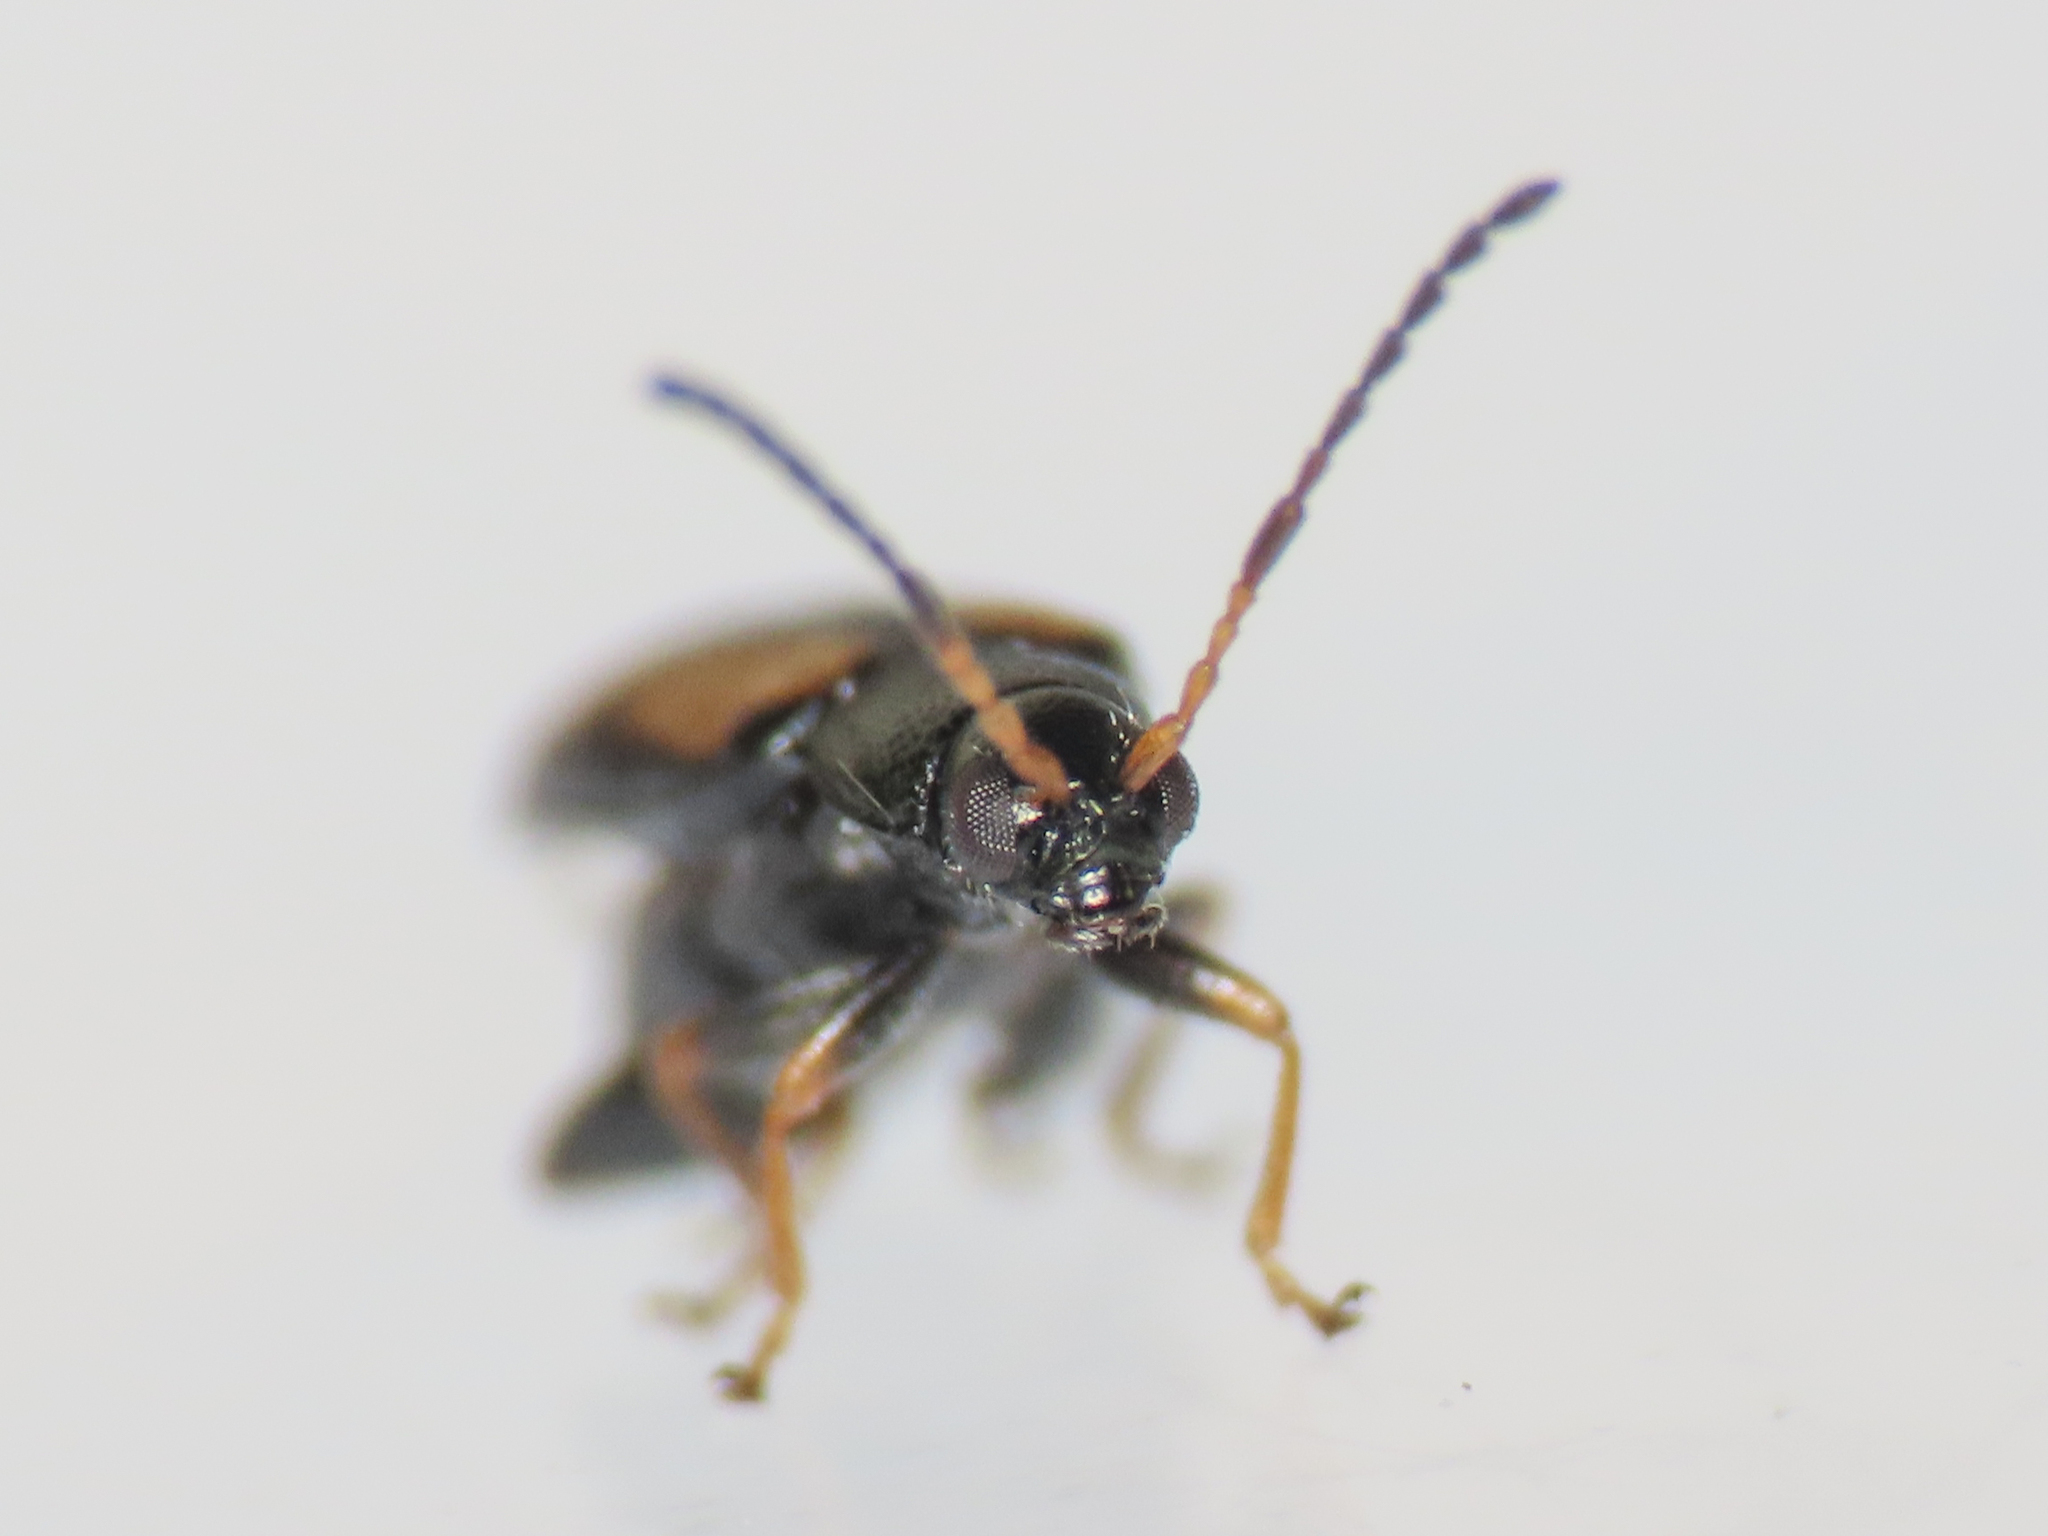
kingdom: Animalia
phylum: Arthropoda
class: Insecta
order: Coleoptera
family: Chrysomelidae
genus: Phyllotreta
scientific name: Phyllotreta variipennis
